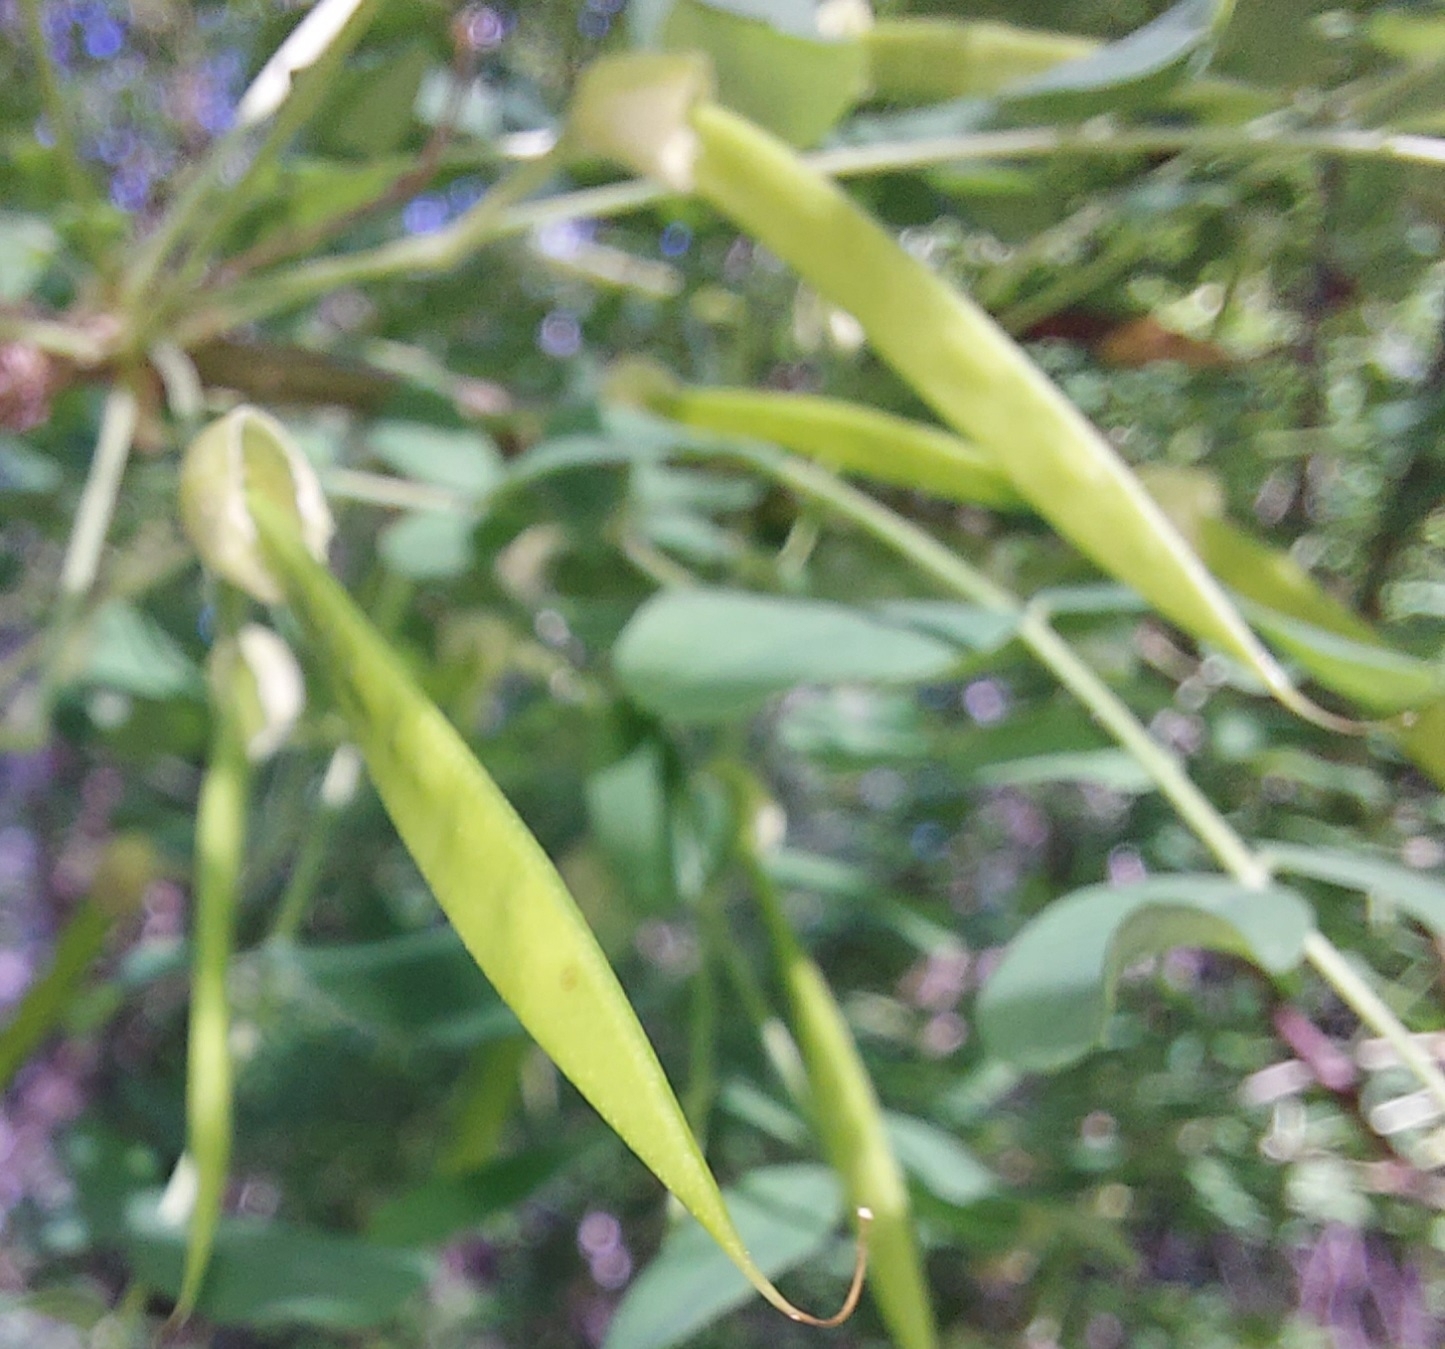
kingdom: Plantae
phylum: Tracheophyta
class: Magnoliopsida
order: Fabales
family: Fabaceae
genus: Caragana
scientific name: Caragana arborescens
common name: Siberian peashrub
